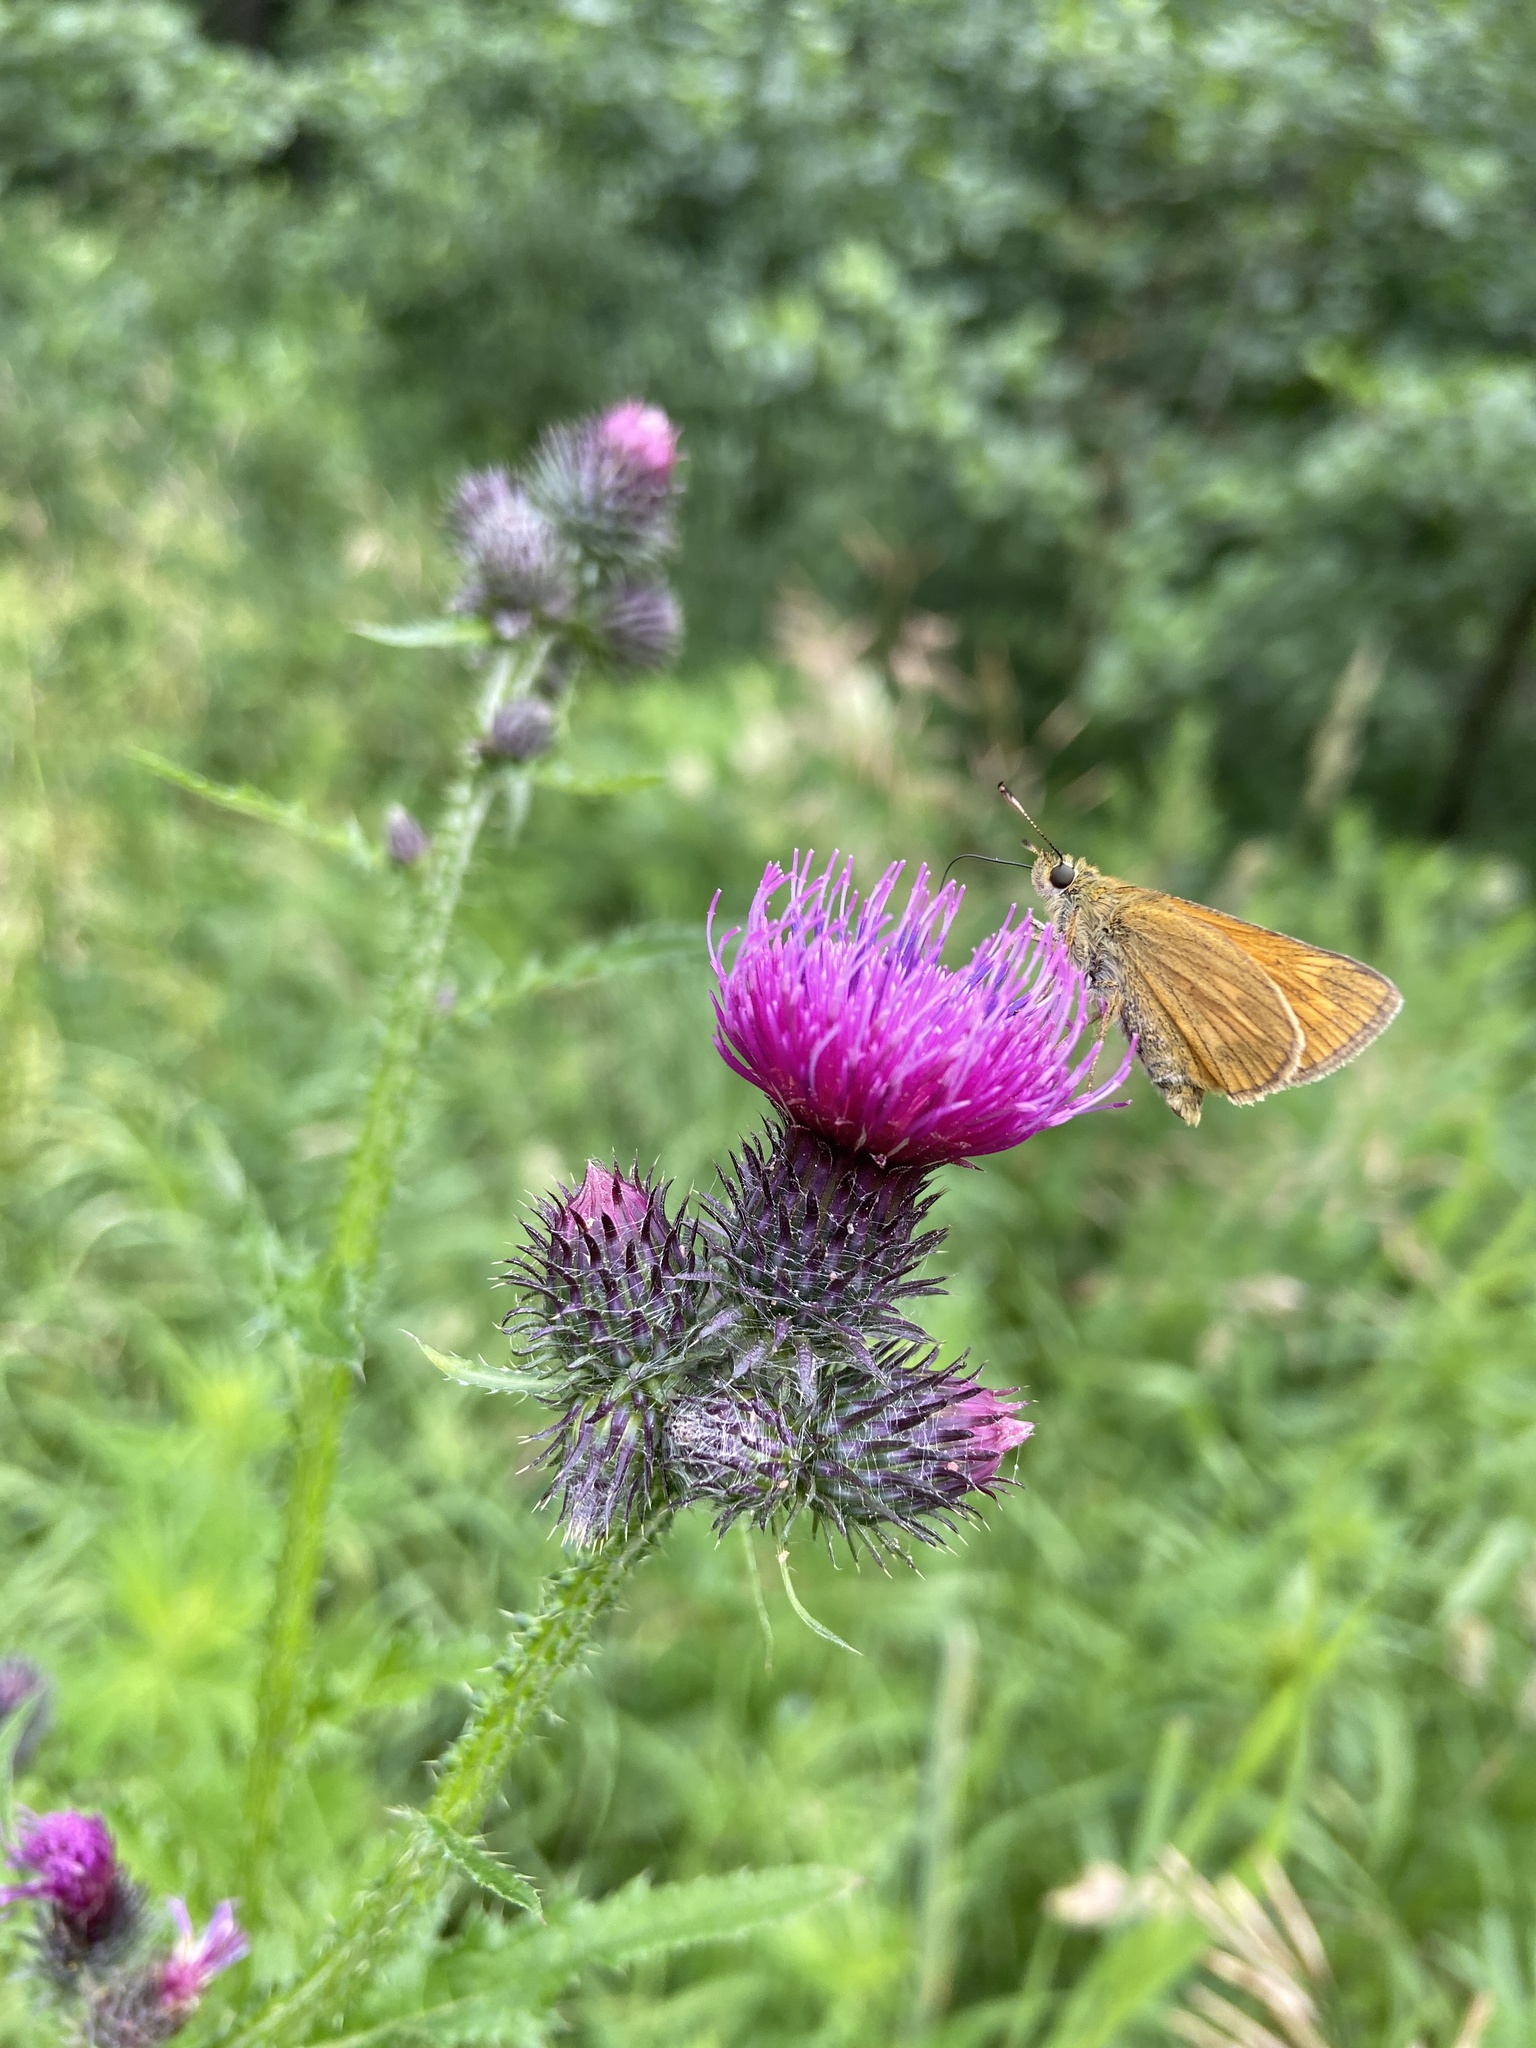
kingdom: Animalia
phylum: Arthropoda
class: Insecta
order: Lepidoptera
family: Hesperiidae
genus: Ochlodes
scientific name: Ochlodes venata
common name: Large skipper
